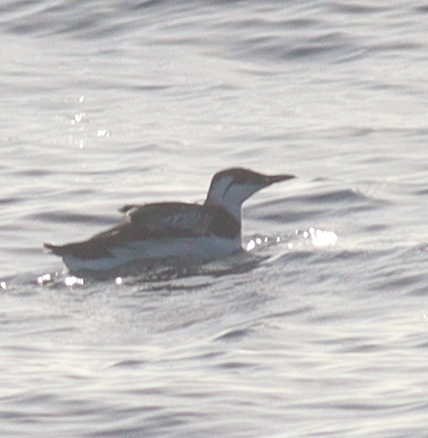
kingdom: Animalia
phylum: Chordata
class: Aves
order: Charadriiformes
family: Alcidae
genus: Uria
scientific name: Uria aalge
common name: Common murre
